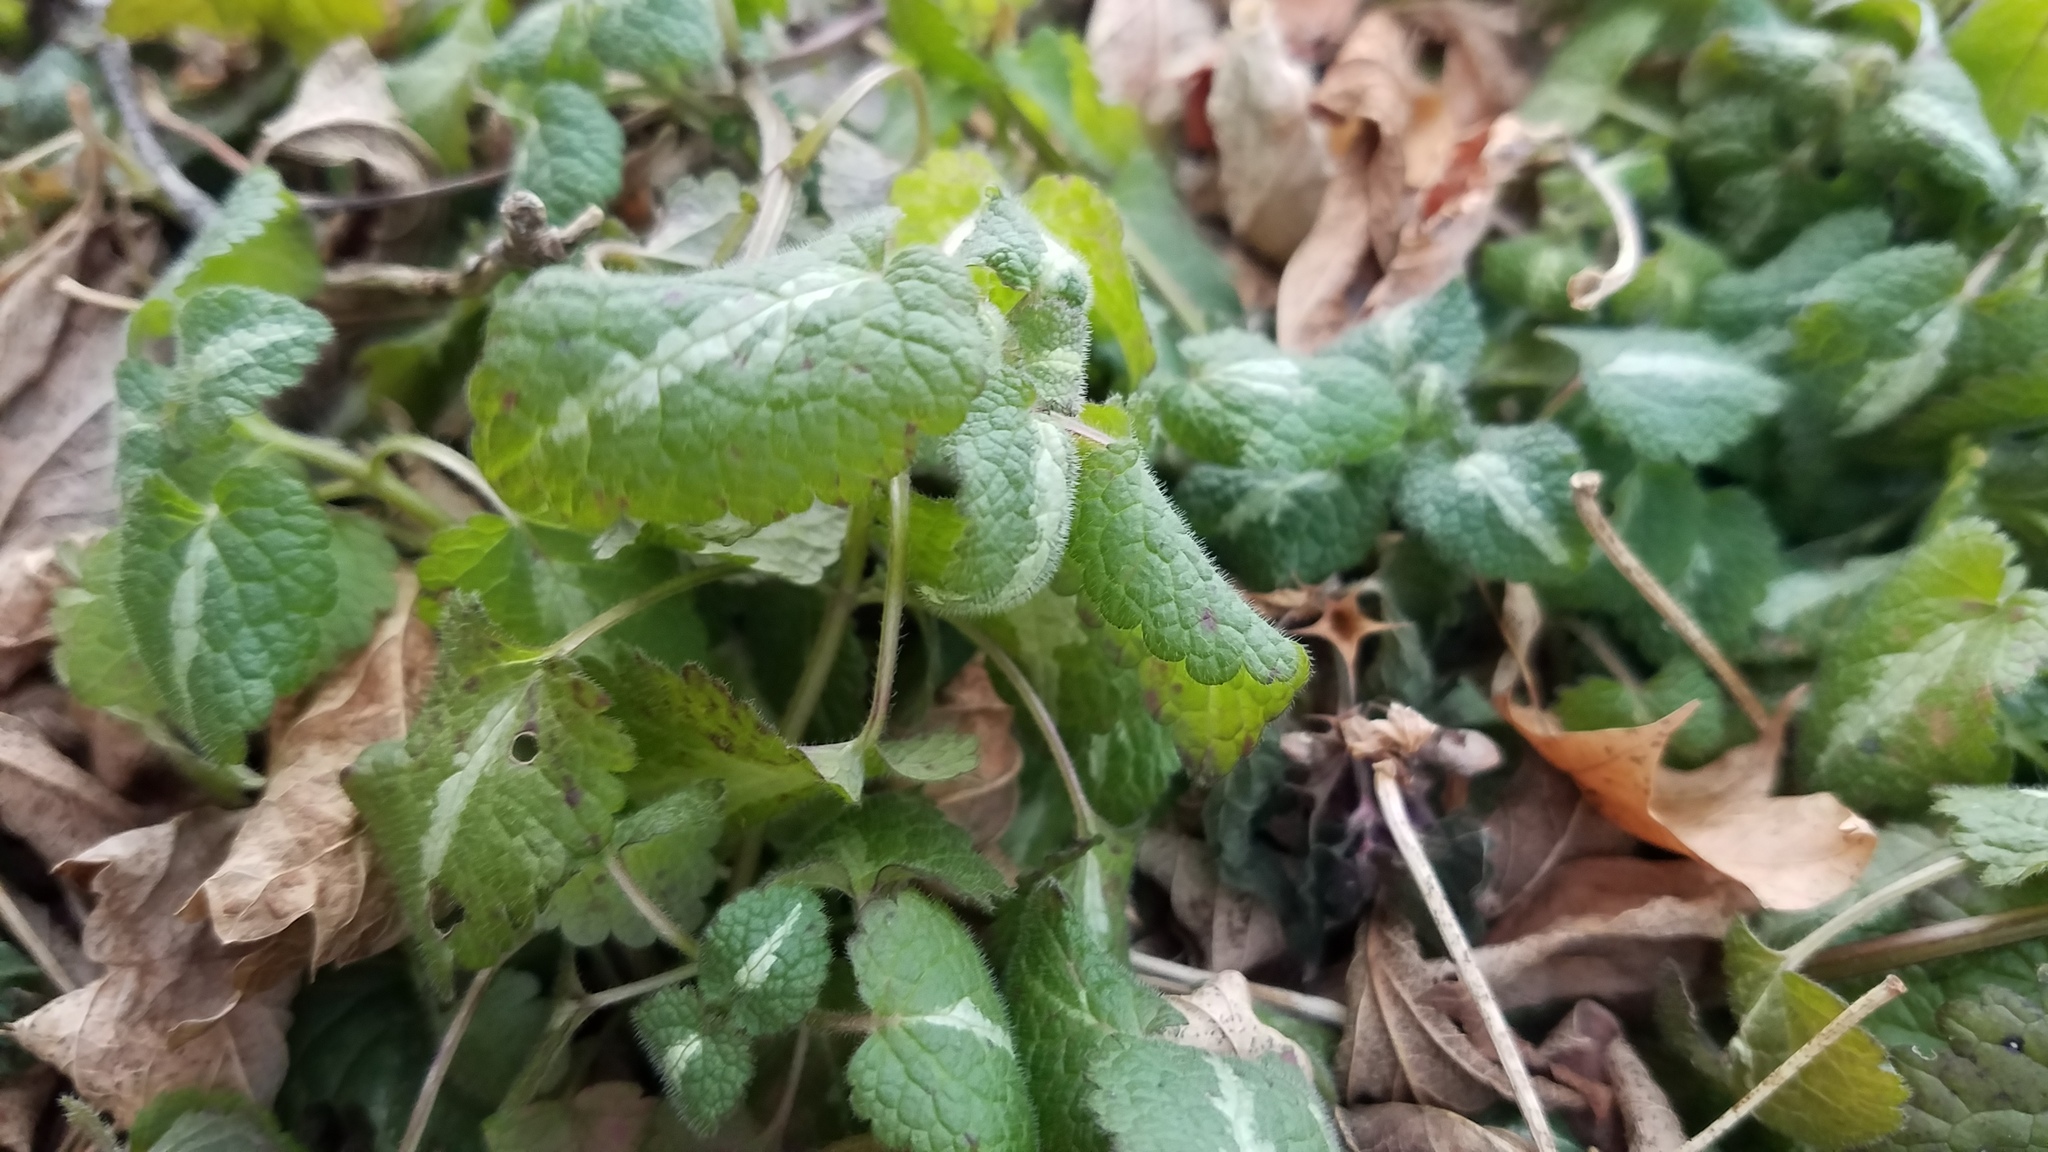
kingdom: Plantae
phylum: Tracheophyta
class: Magnoliopsida
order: Lamiales
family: Lamiaceae
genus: Lamium
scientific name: Lamium maculatum
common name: Spotted dead-nettle
